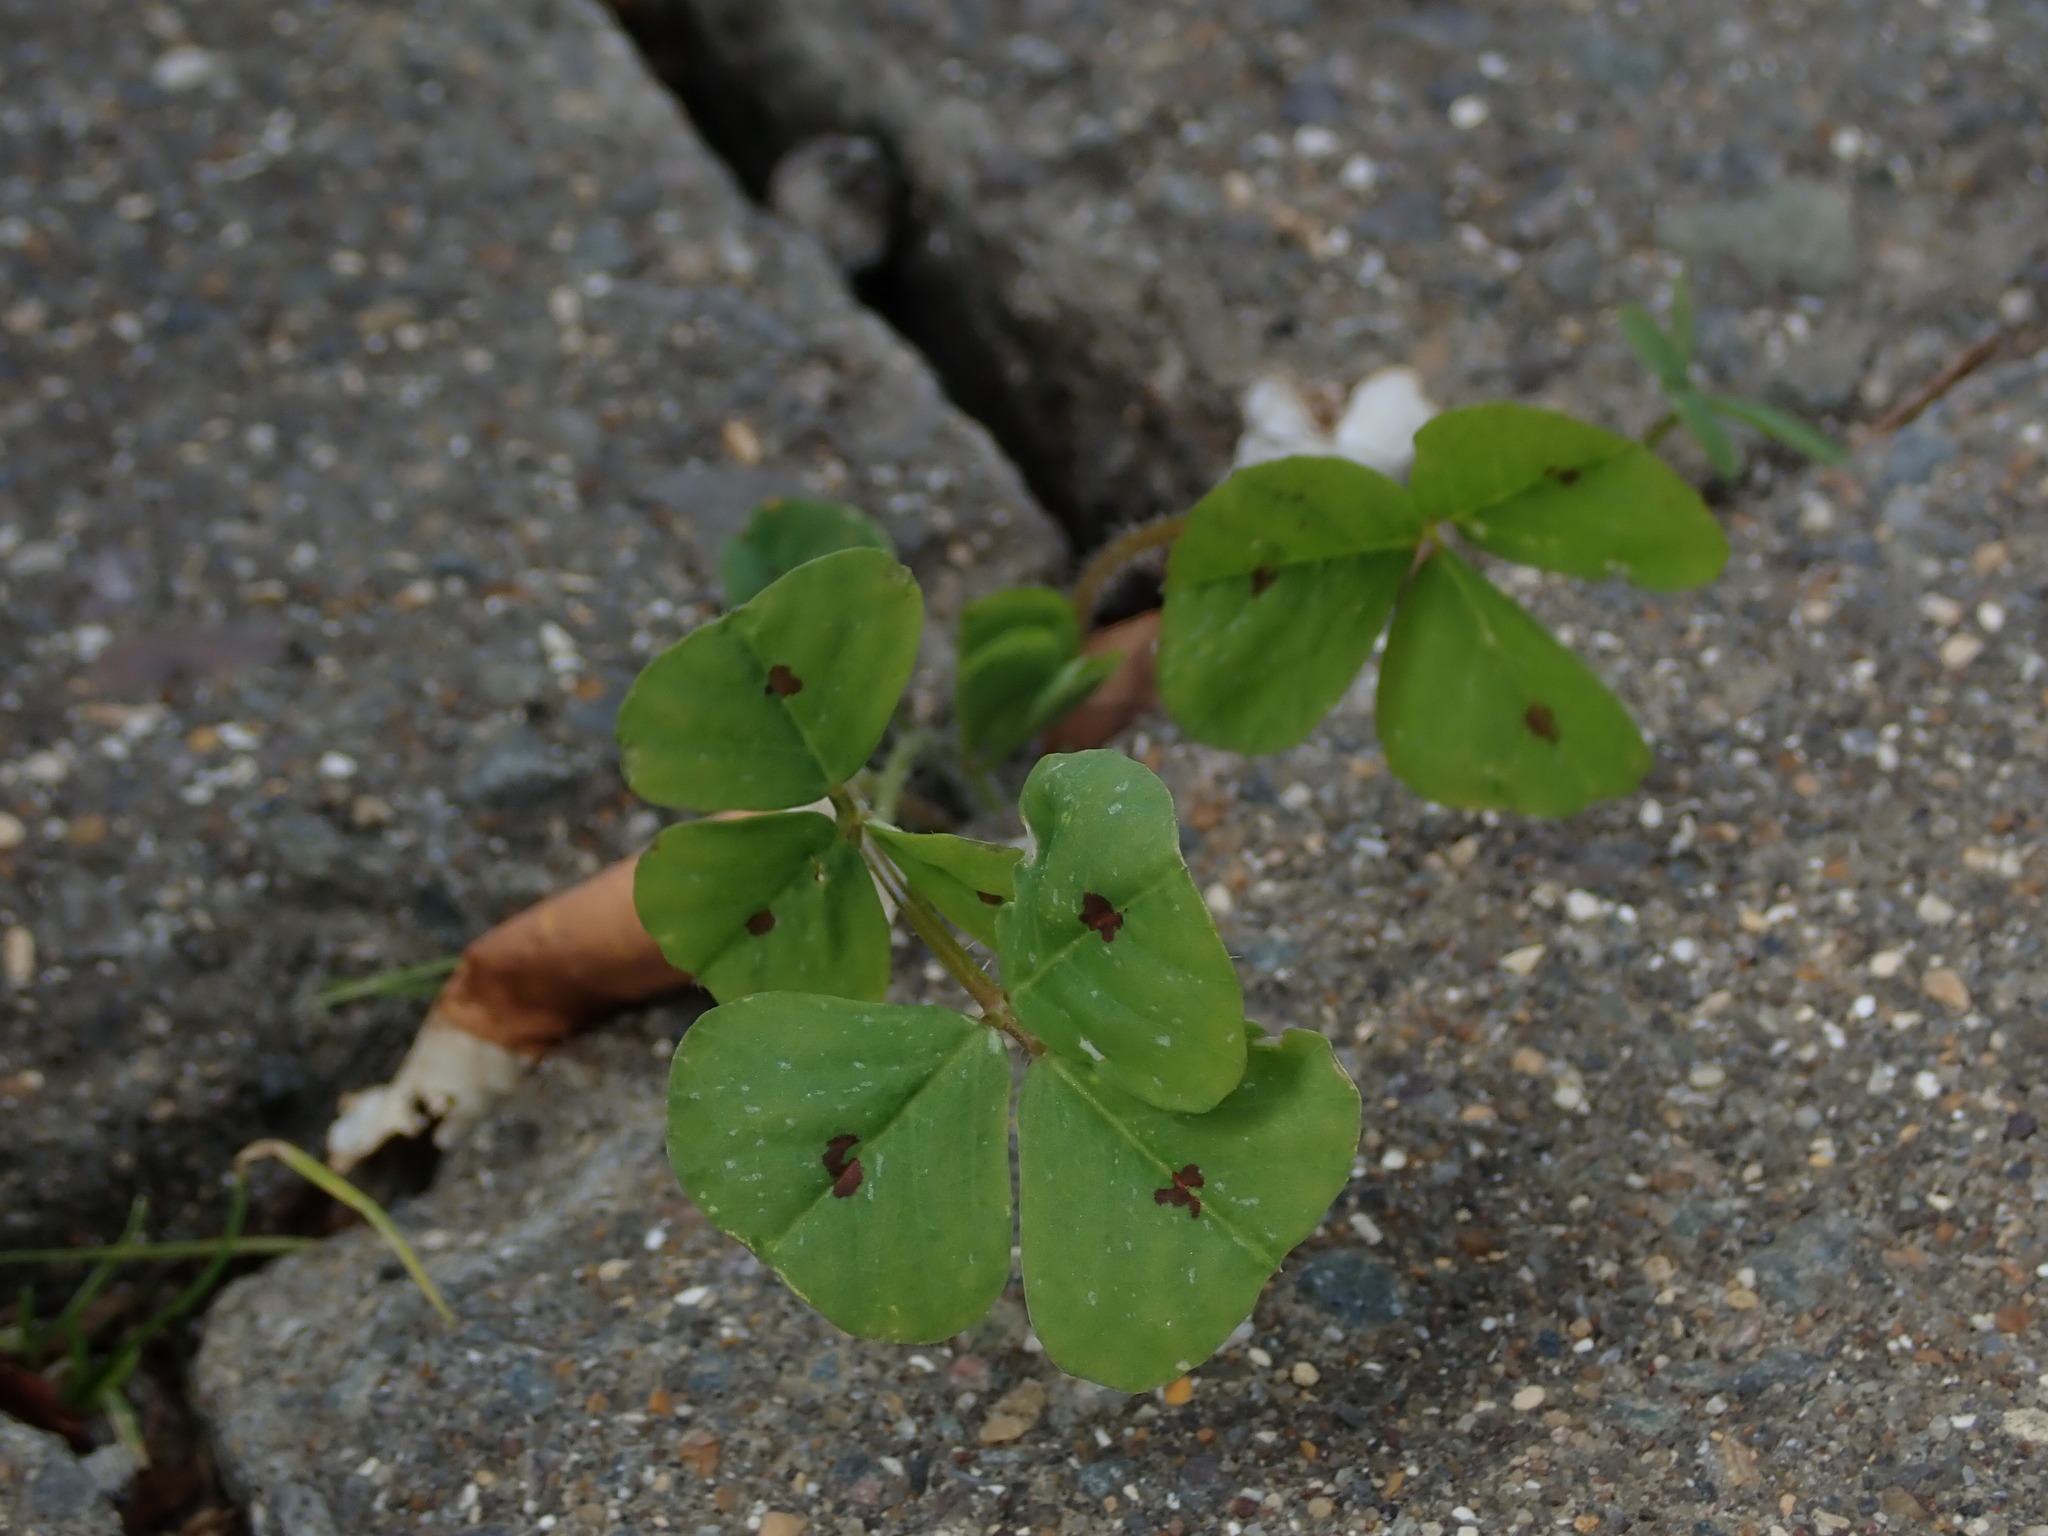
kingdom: Plantae
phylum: Tracheophyta
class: Magnoliopsida
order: Fabales
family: Fabaceae
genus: Medicago
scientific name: Medicago arabica
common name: Spotted medick
